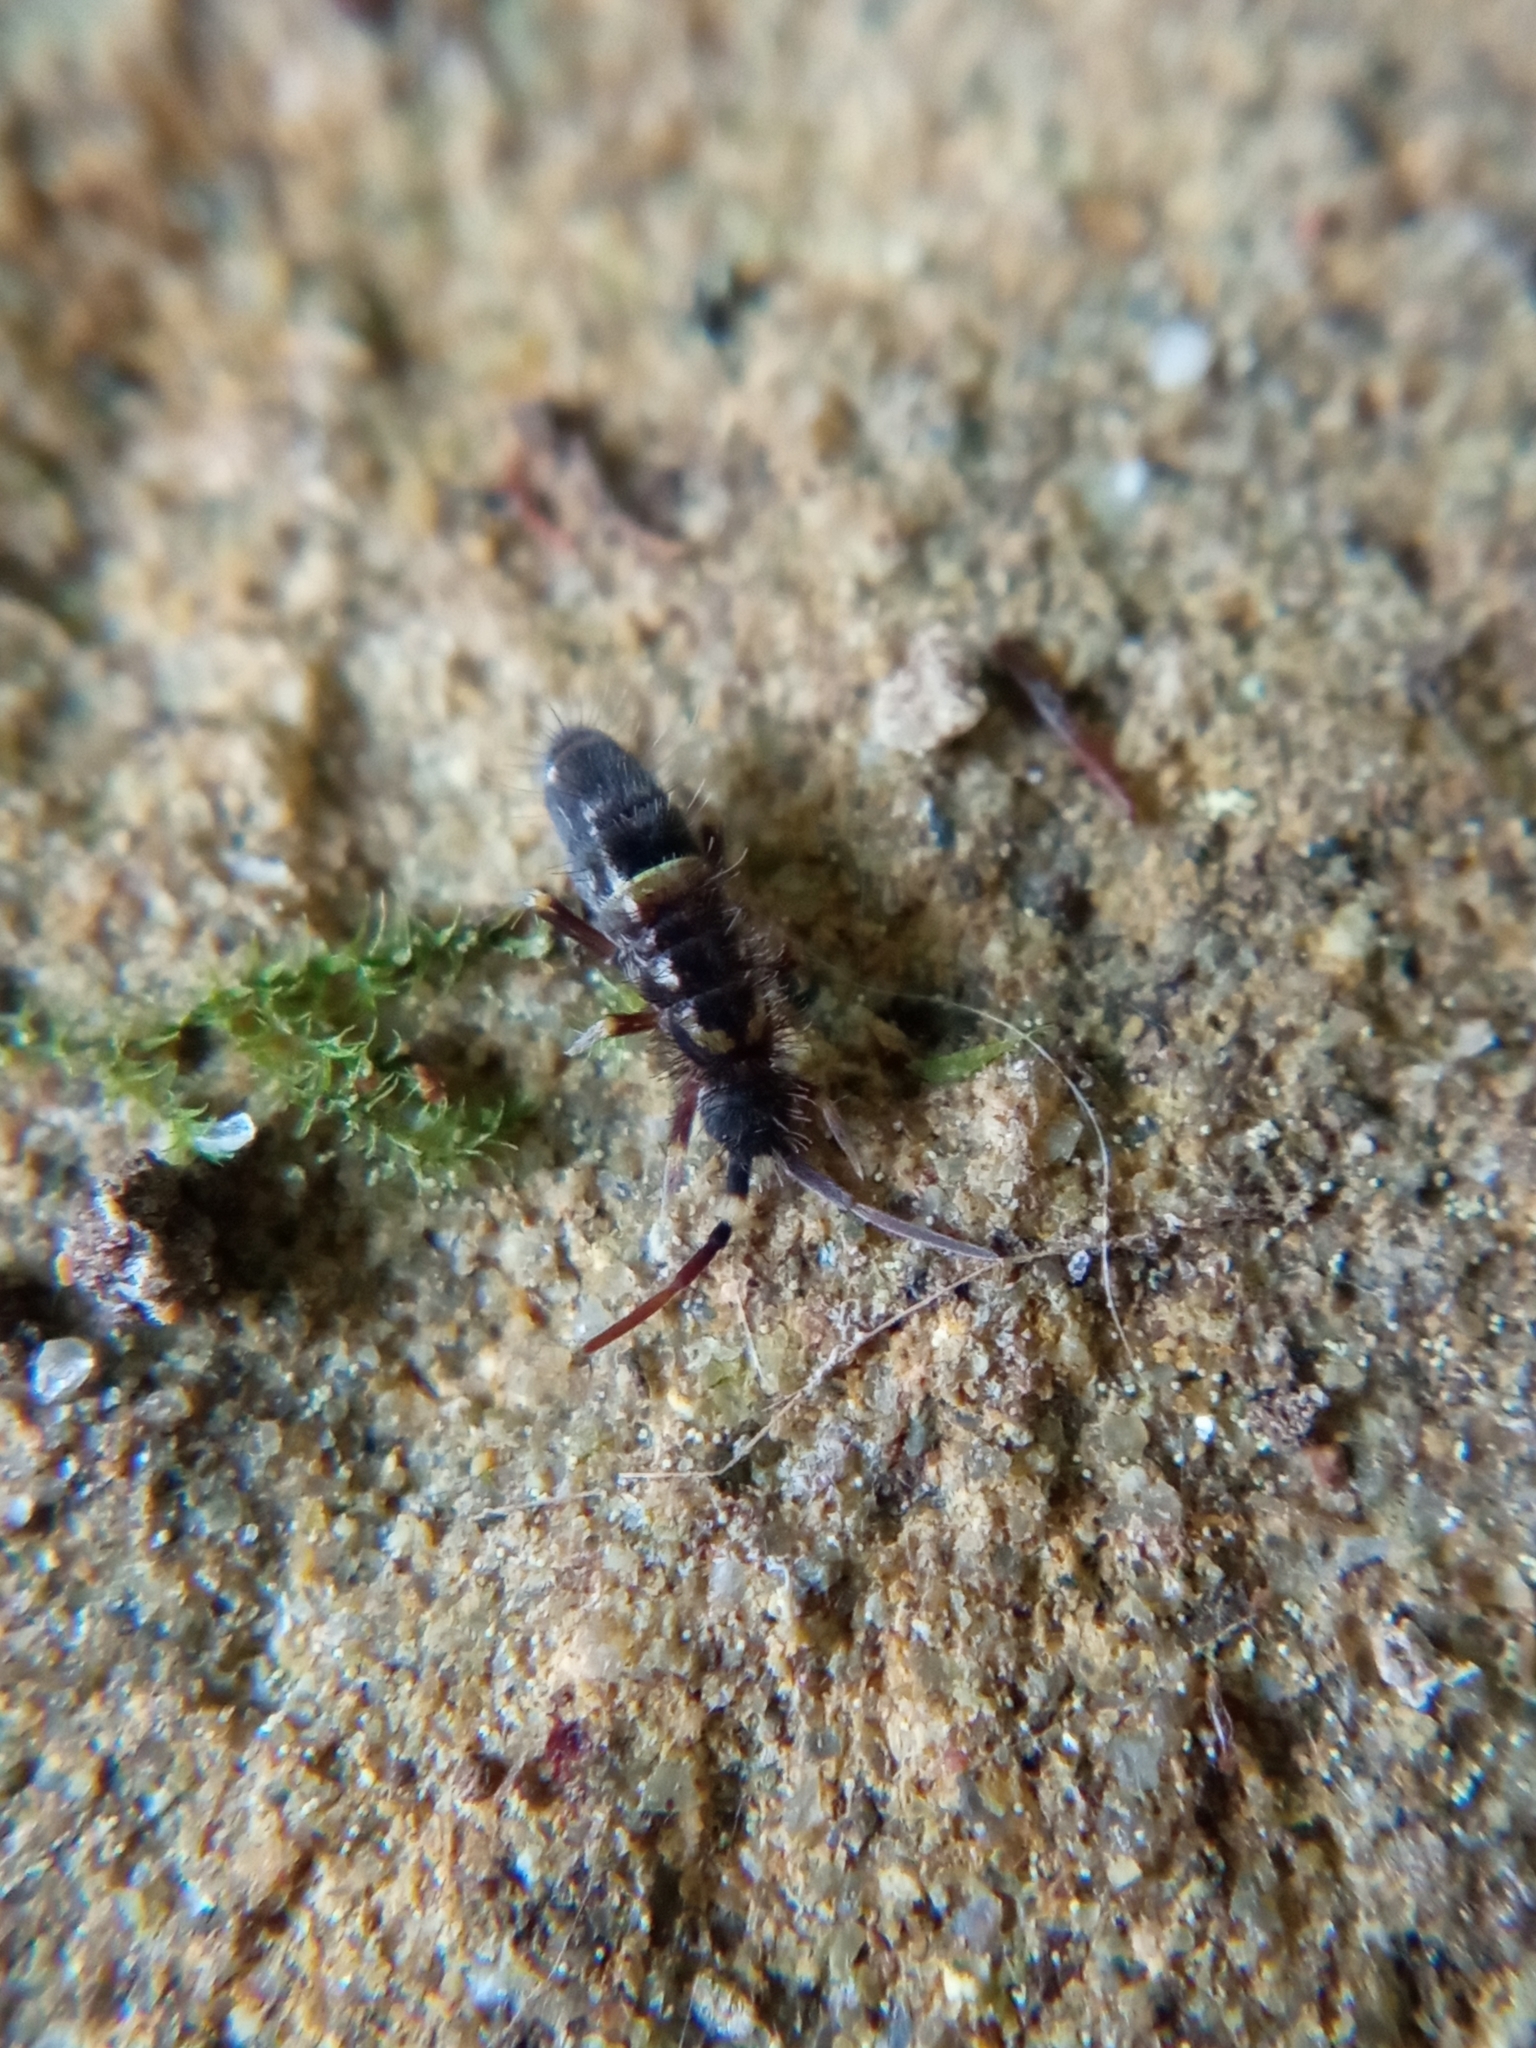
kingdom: Animalia
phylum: Arthropoda
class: Collembola
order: Entomobryomorpha
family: Orchesellidae
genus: Orchesella
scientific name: Orchesella cincta
